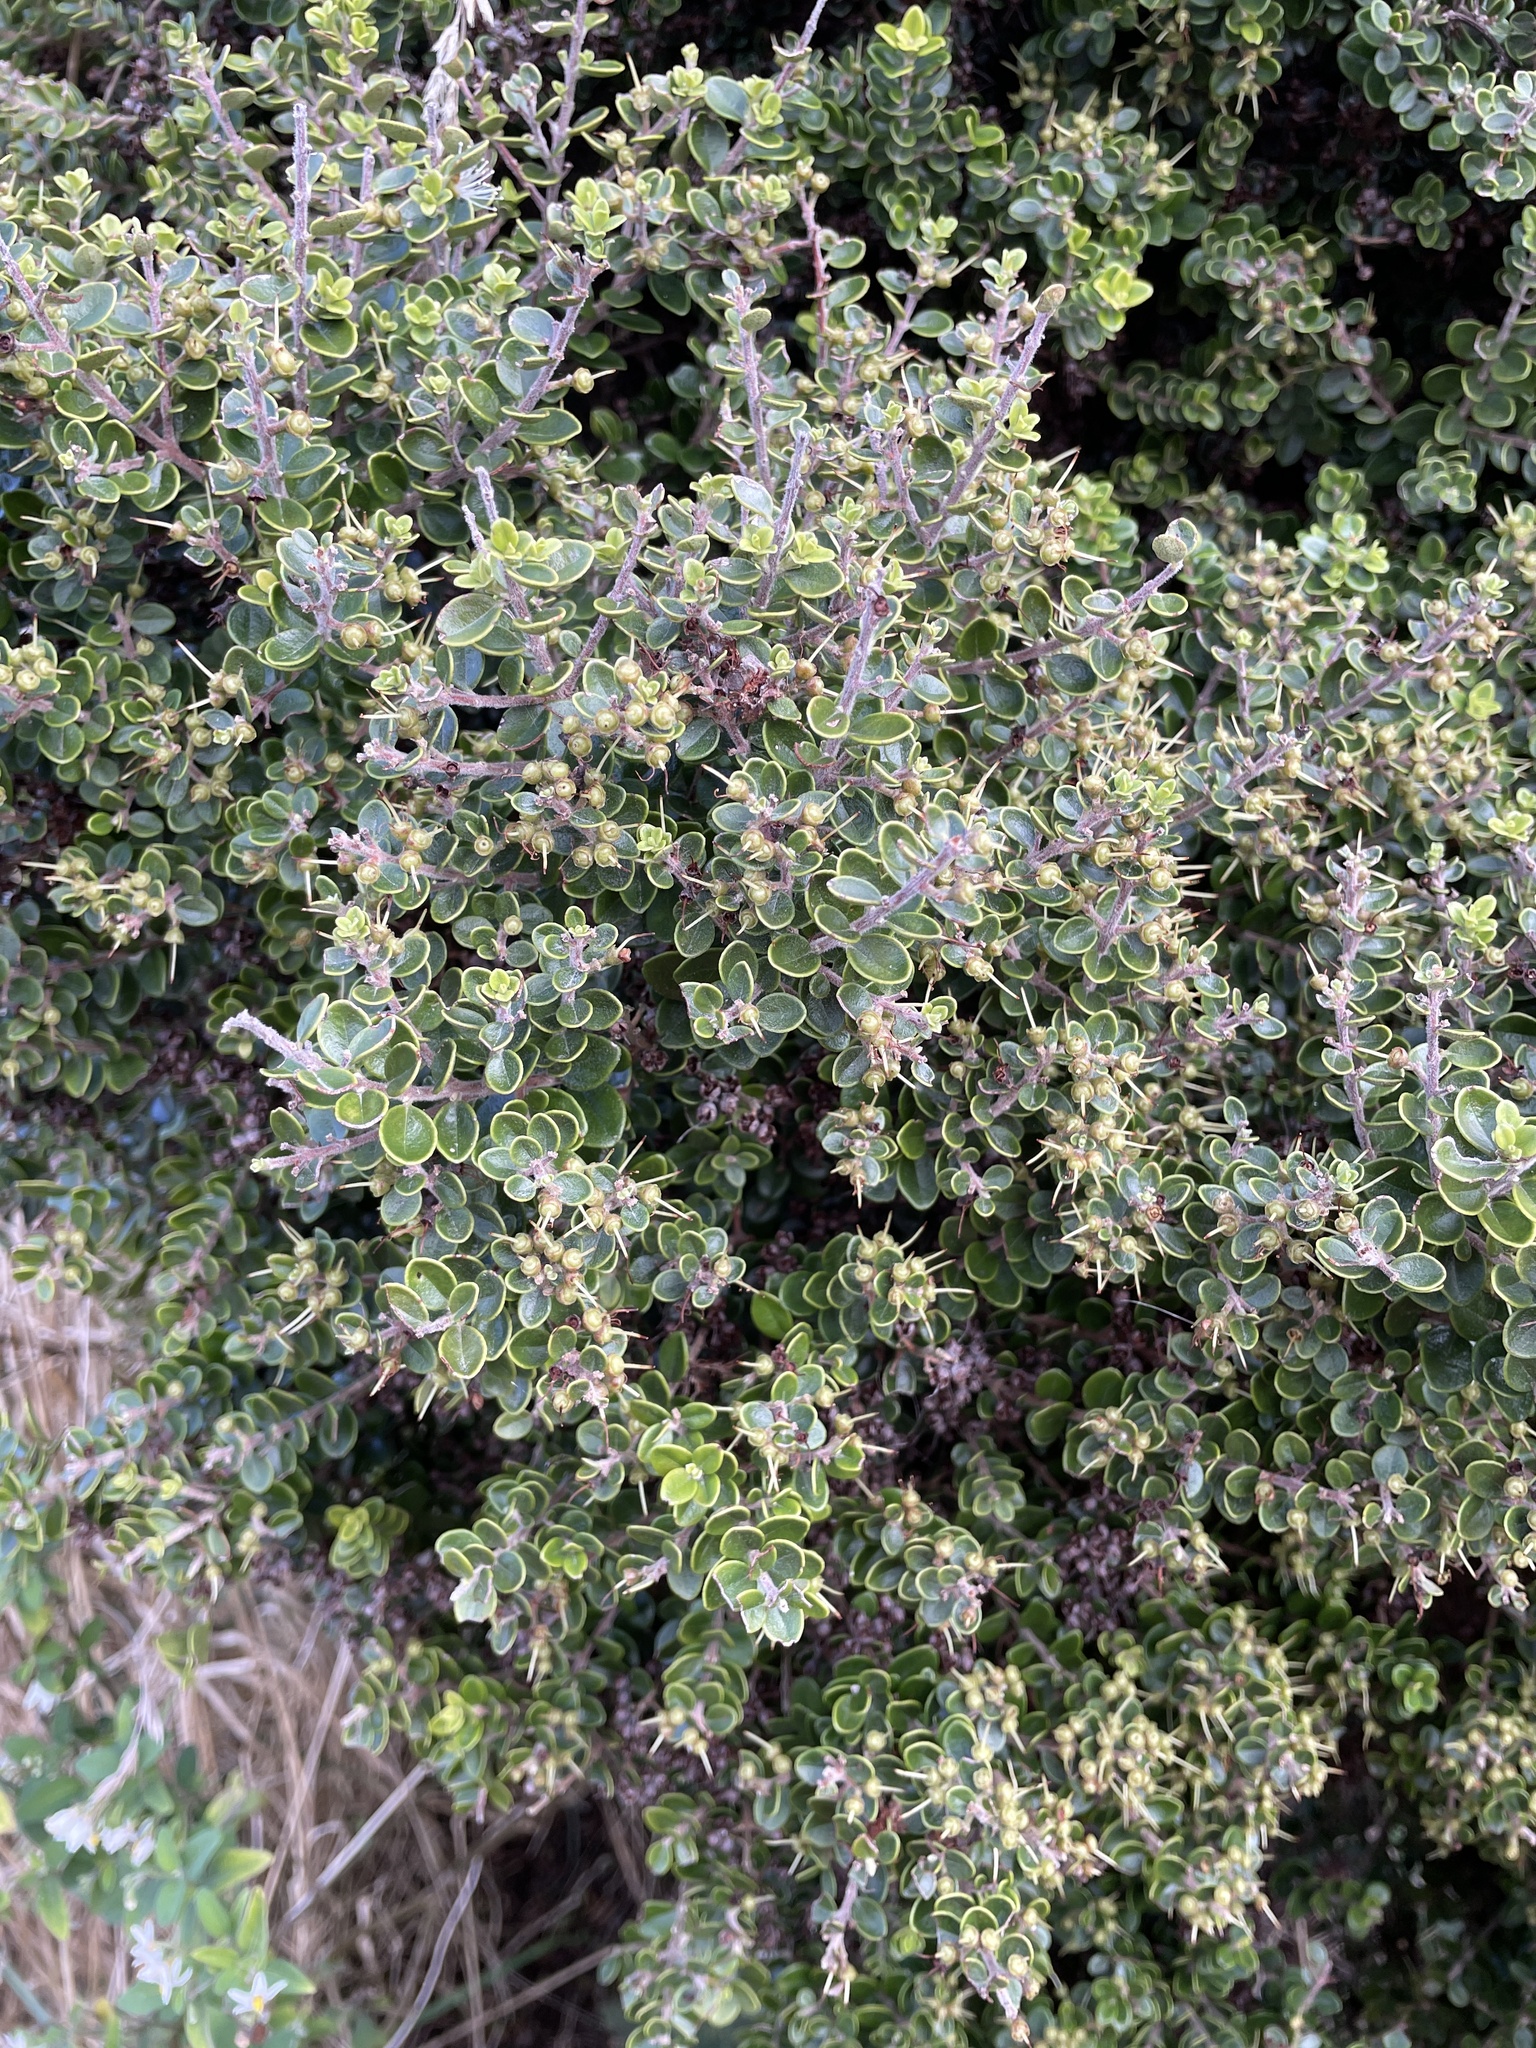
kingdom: Plantae
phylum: Tracheophyta
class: Magnoliopsida
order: Myrtales
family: Myrtaceae
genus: Metrosideros
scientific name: Metrosideros perforata
